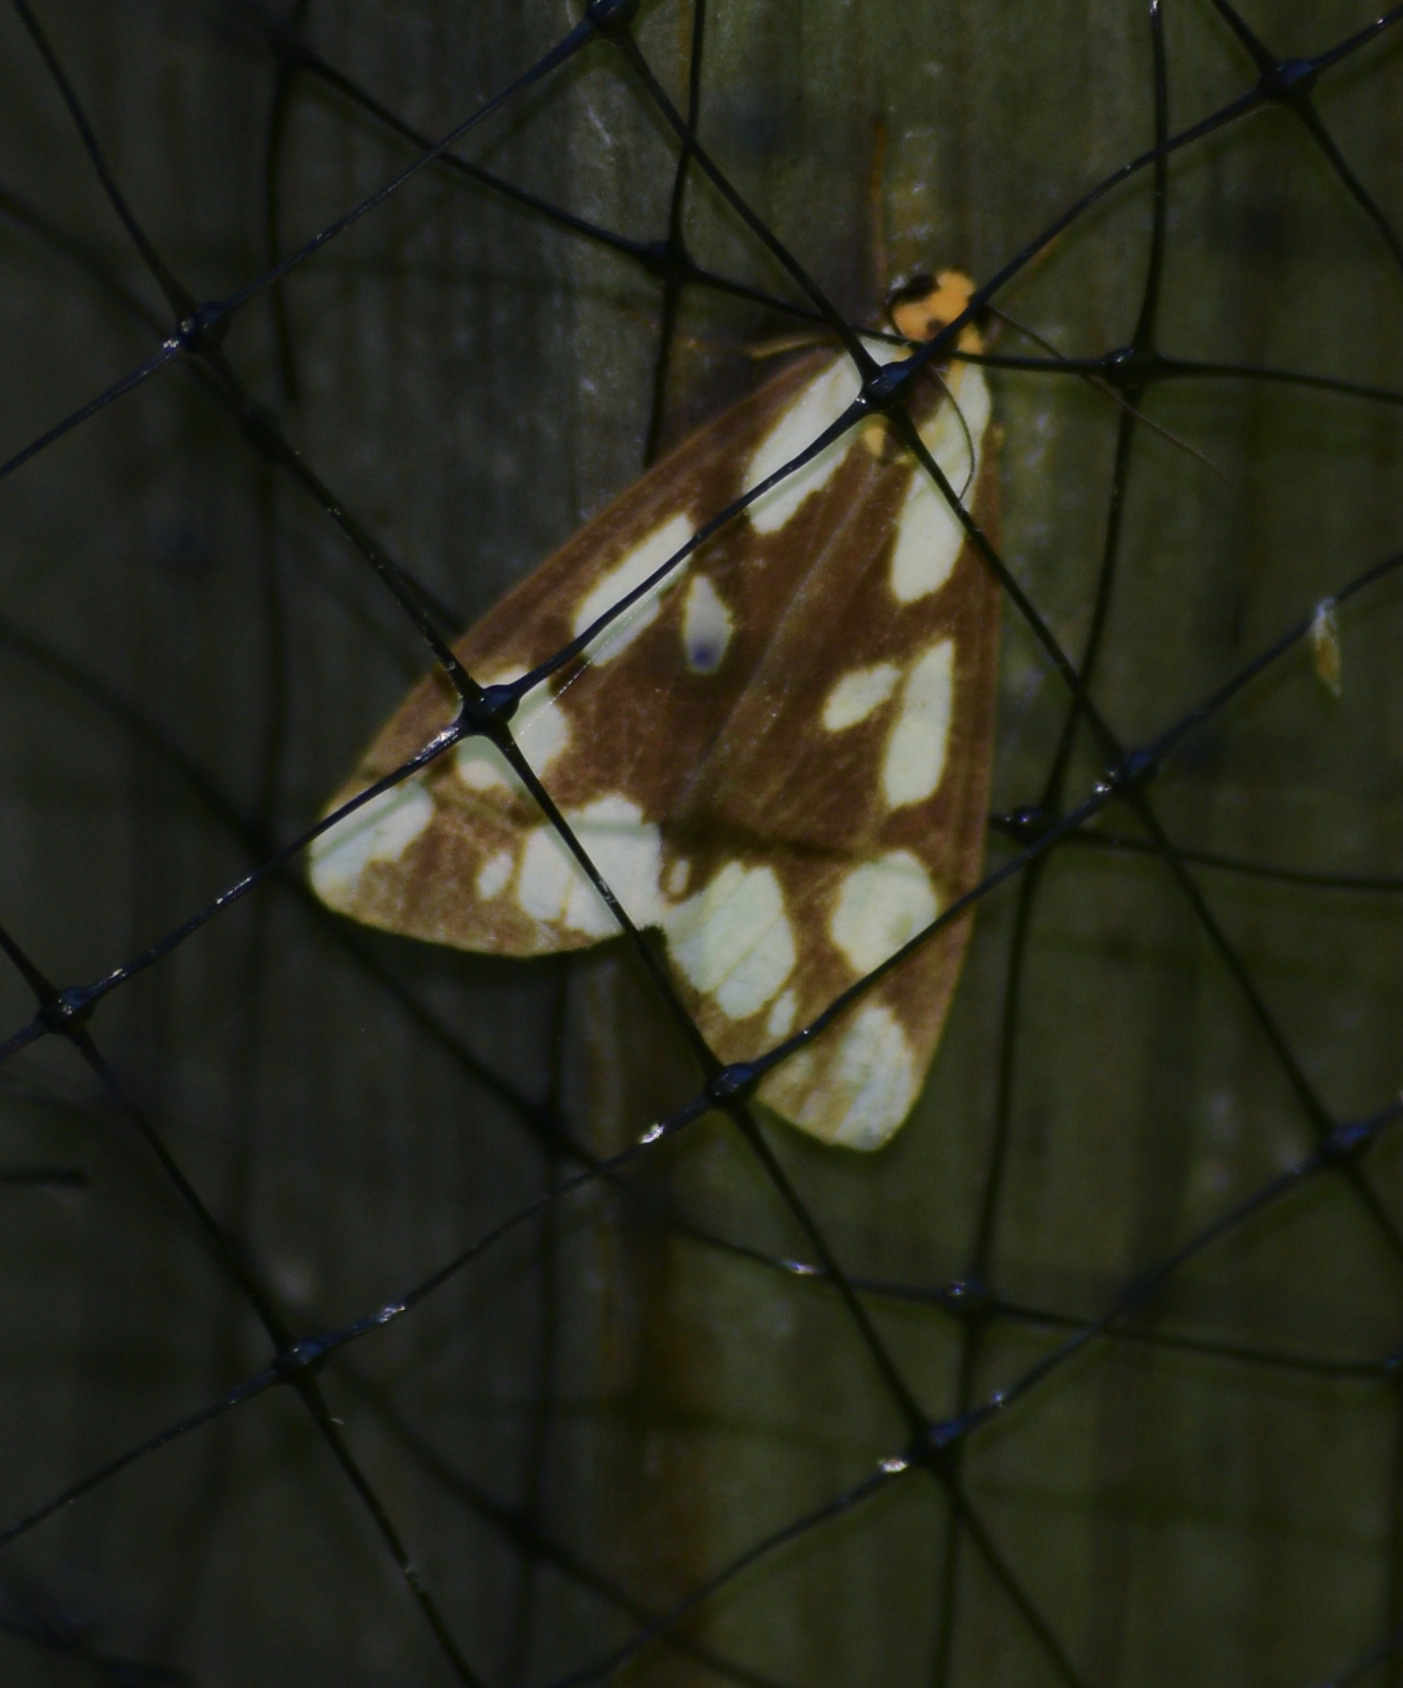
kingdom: Animalia
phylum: Arthropoda
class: Insecta
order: Lepidoptera
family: Erebidae
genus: Haploa
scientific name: Haploa confusa
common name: Confused haploa moth
